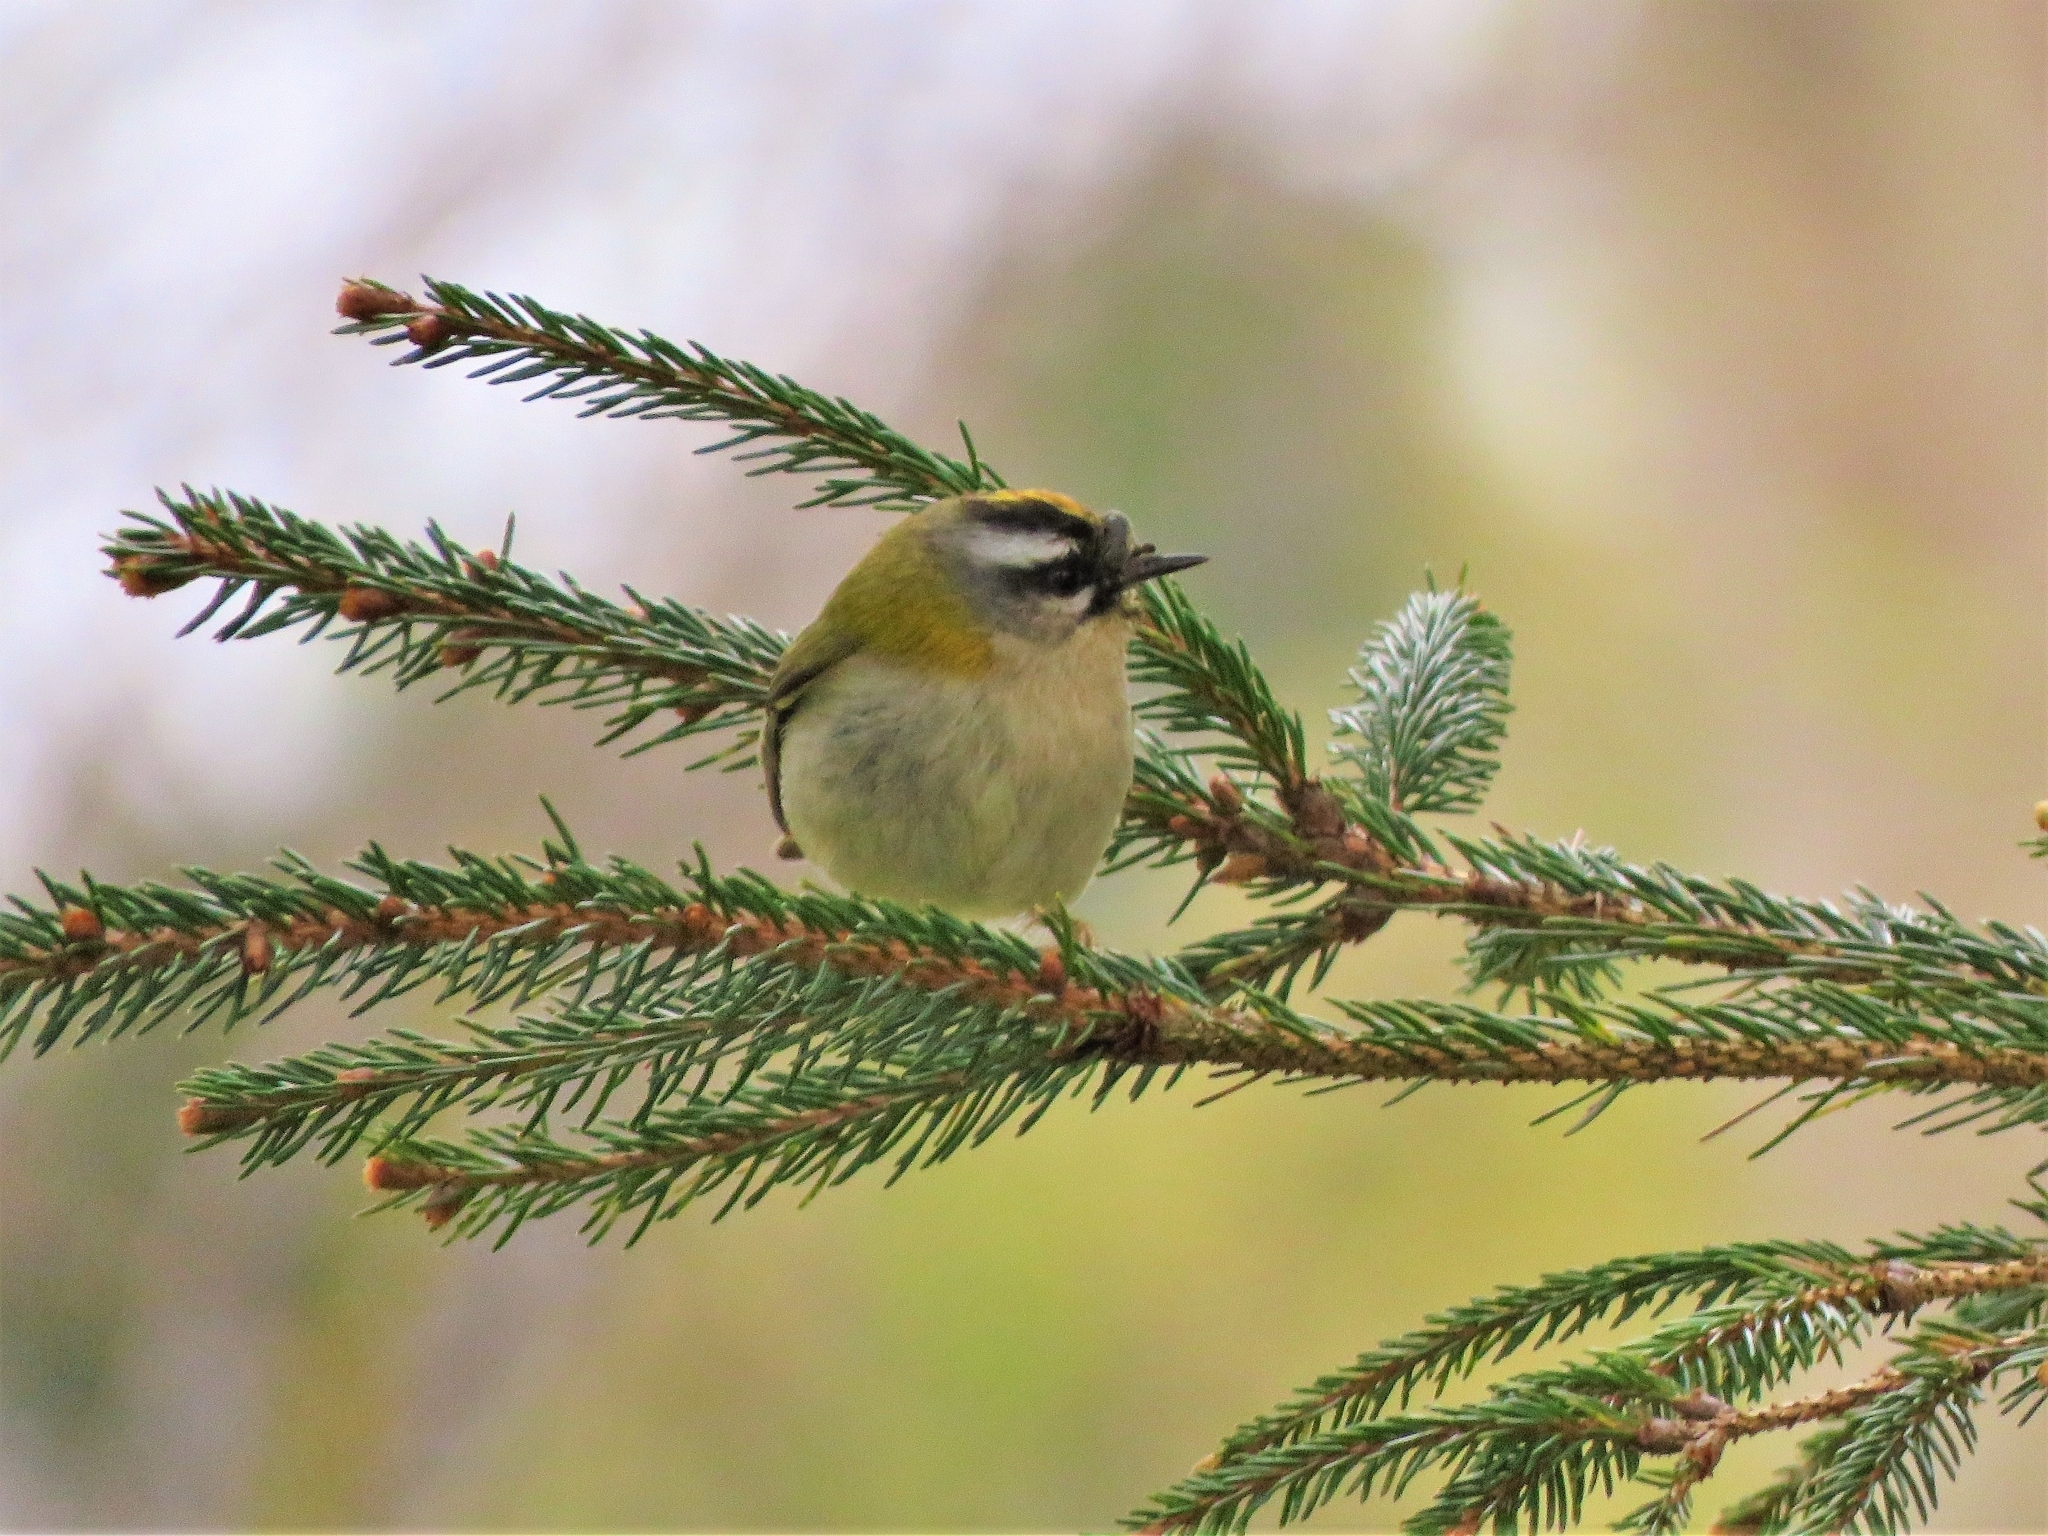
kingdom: Animalia
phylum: Chordata
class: Aves
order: Passeriformes
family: Regulidae
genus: Regulus
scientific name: Regulus ignicapilla
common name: Firecrest
